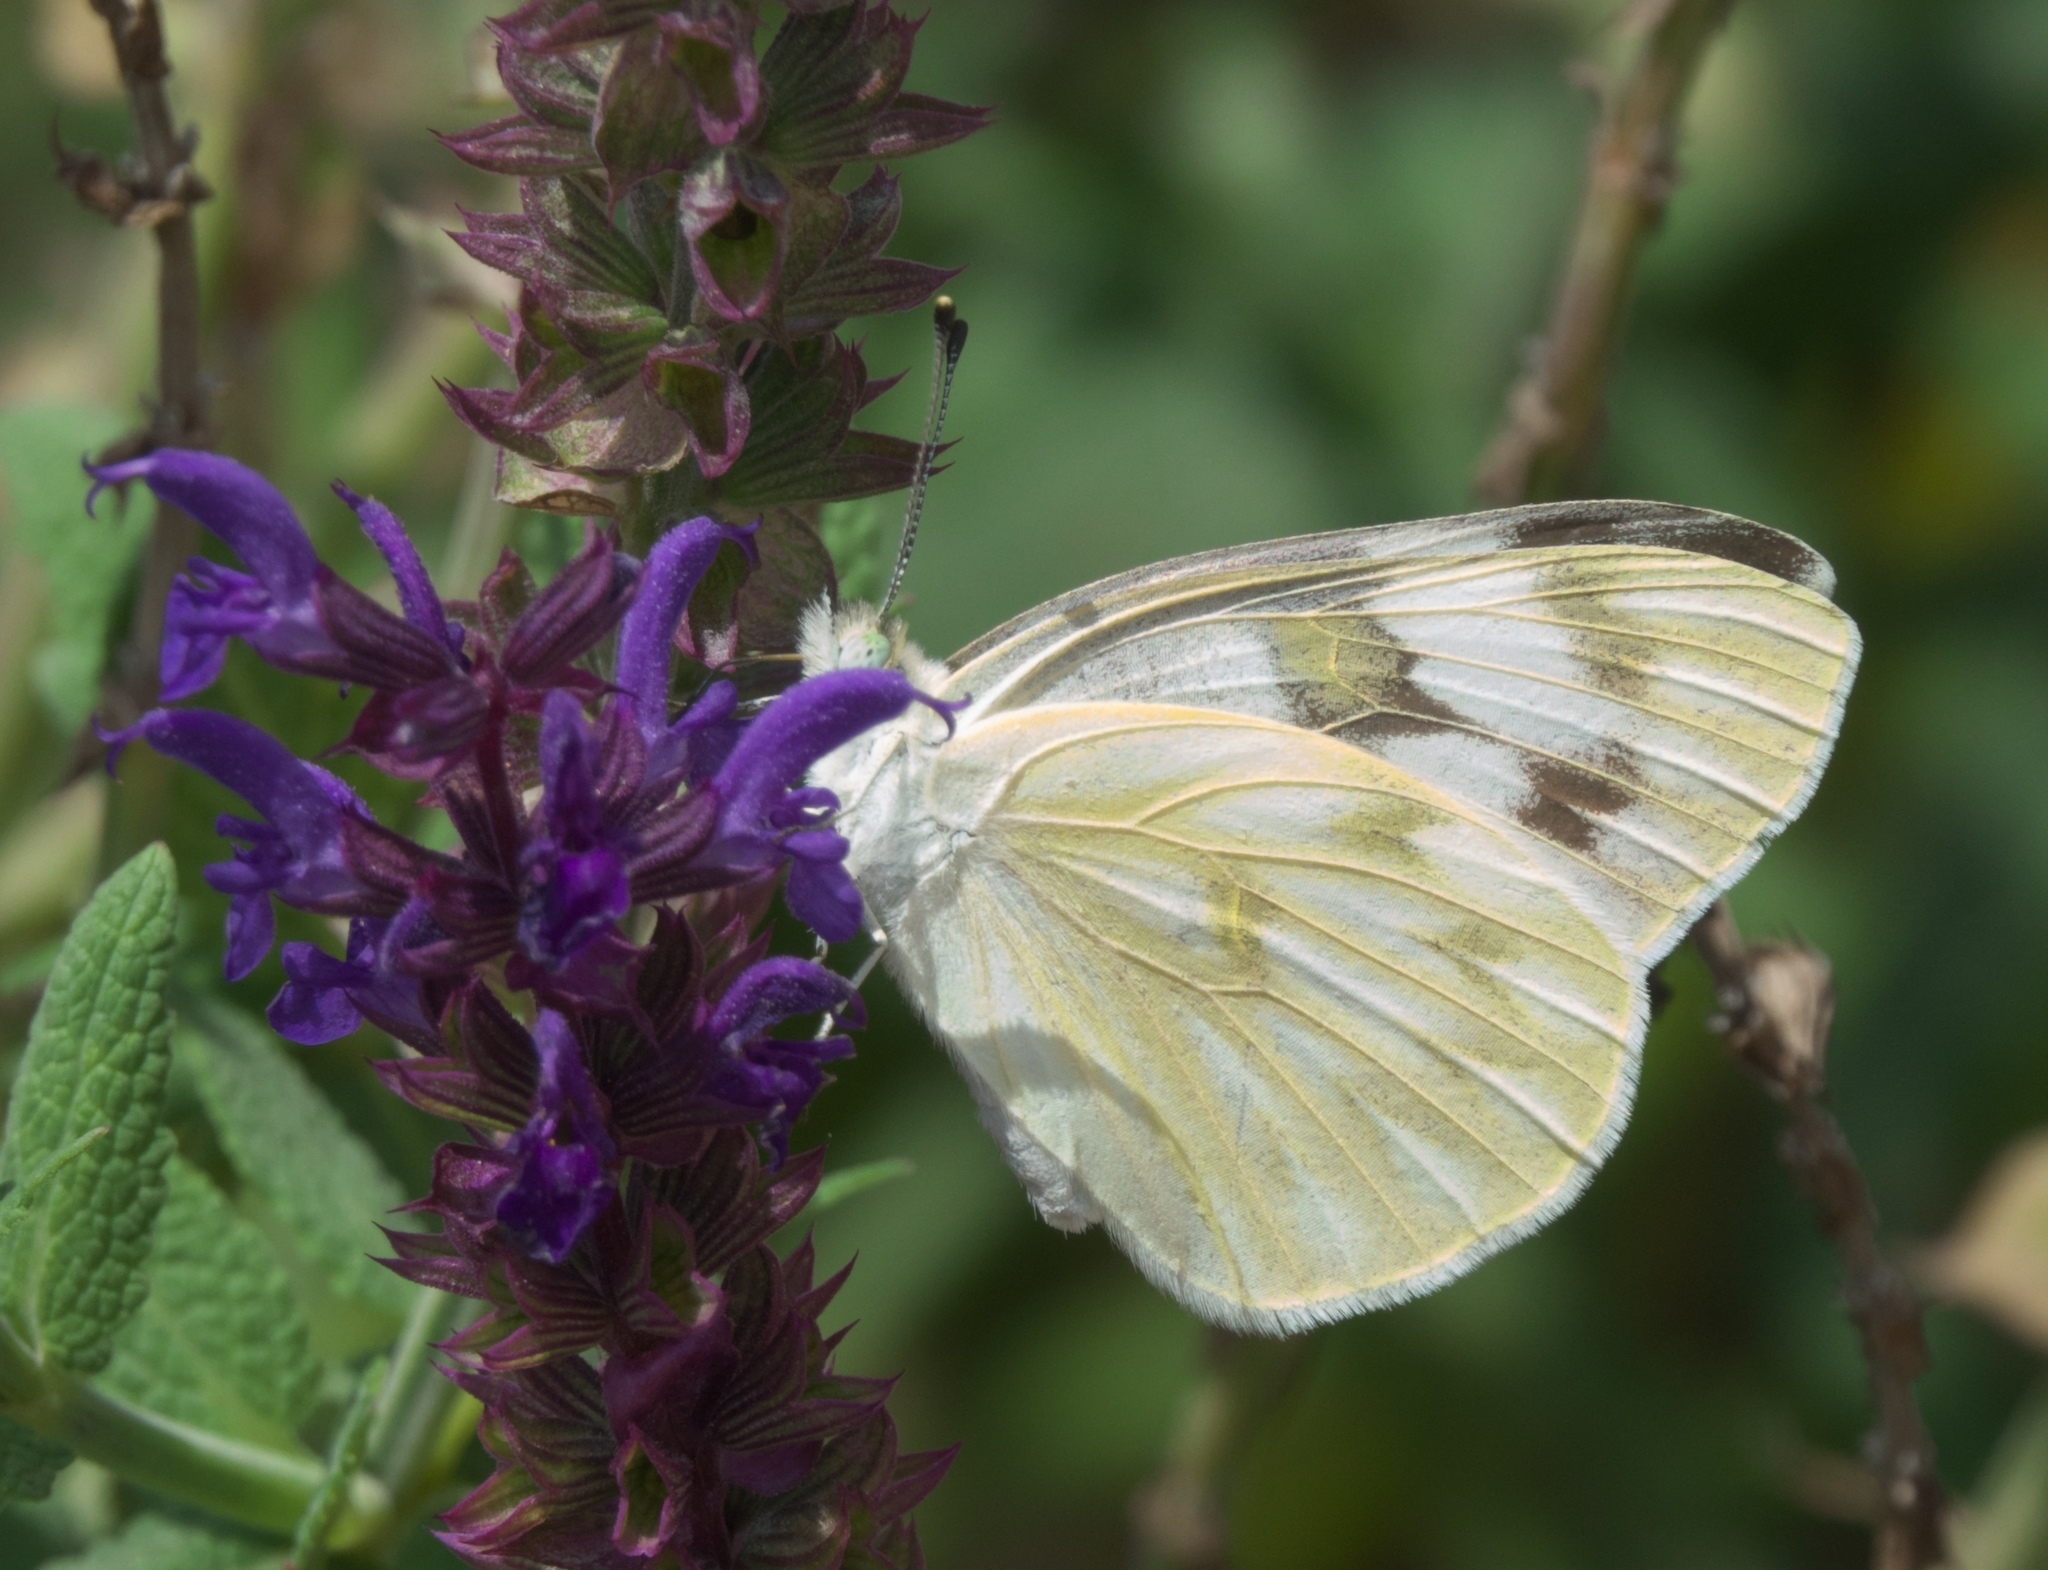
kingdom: Animalia
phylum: Arthropoda
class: Insecta
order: Lepidoptera
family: Pieridae
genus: Pontia
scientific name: Pontia protodice
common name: Checkered white
